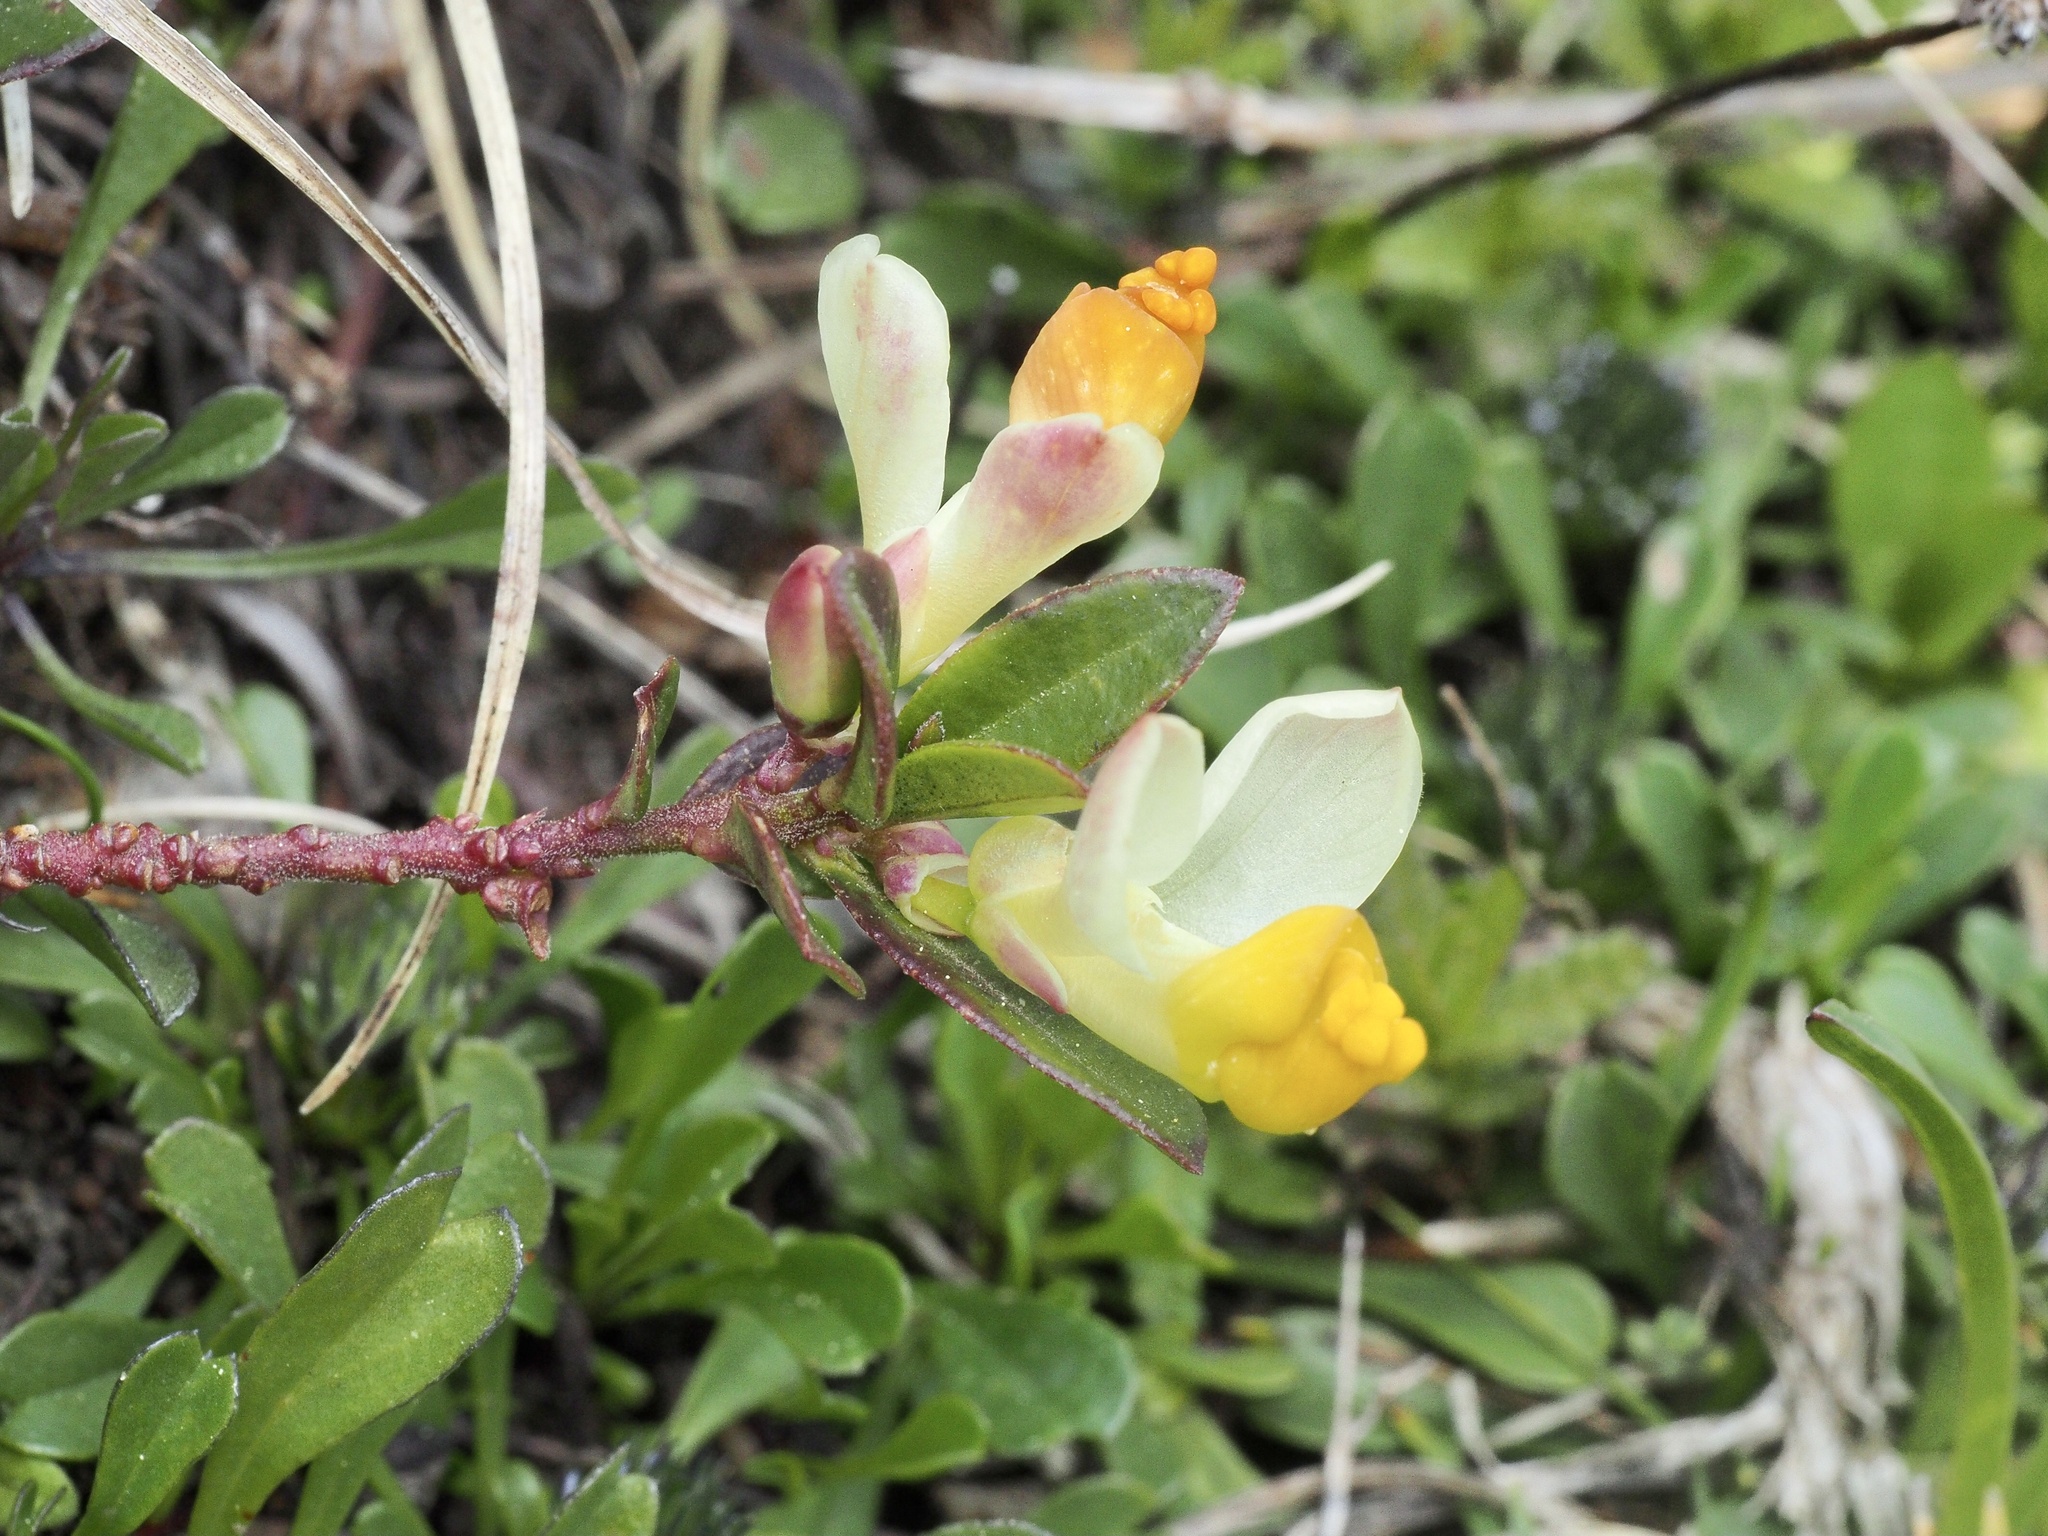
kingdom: Plantae
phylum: Tracheophyta
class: Magnoliopsida
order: Fabales
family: Polygalaceae
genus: Polygaloides
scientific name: Polygaloides chamaebuxus
